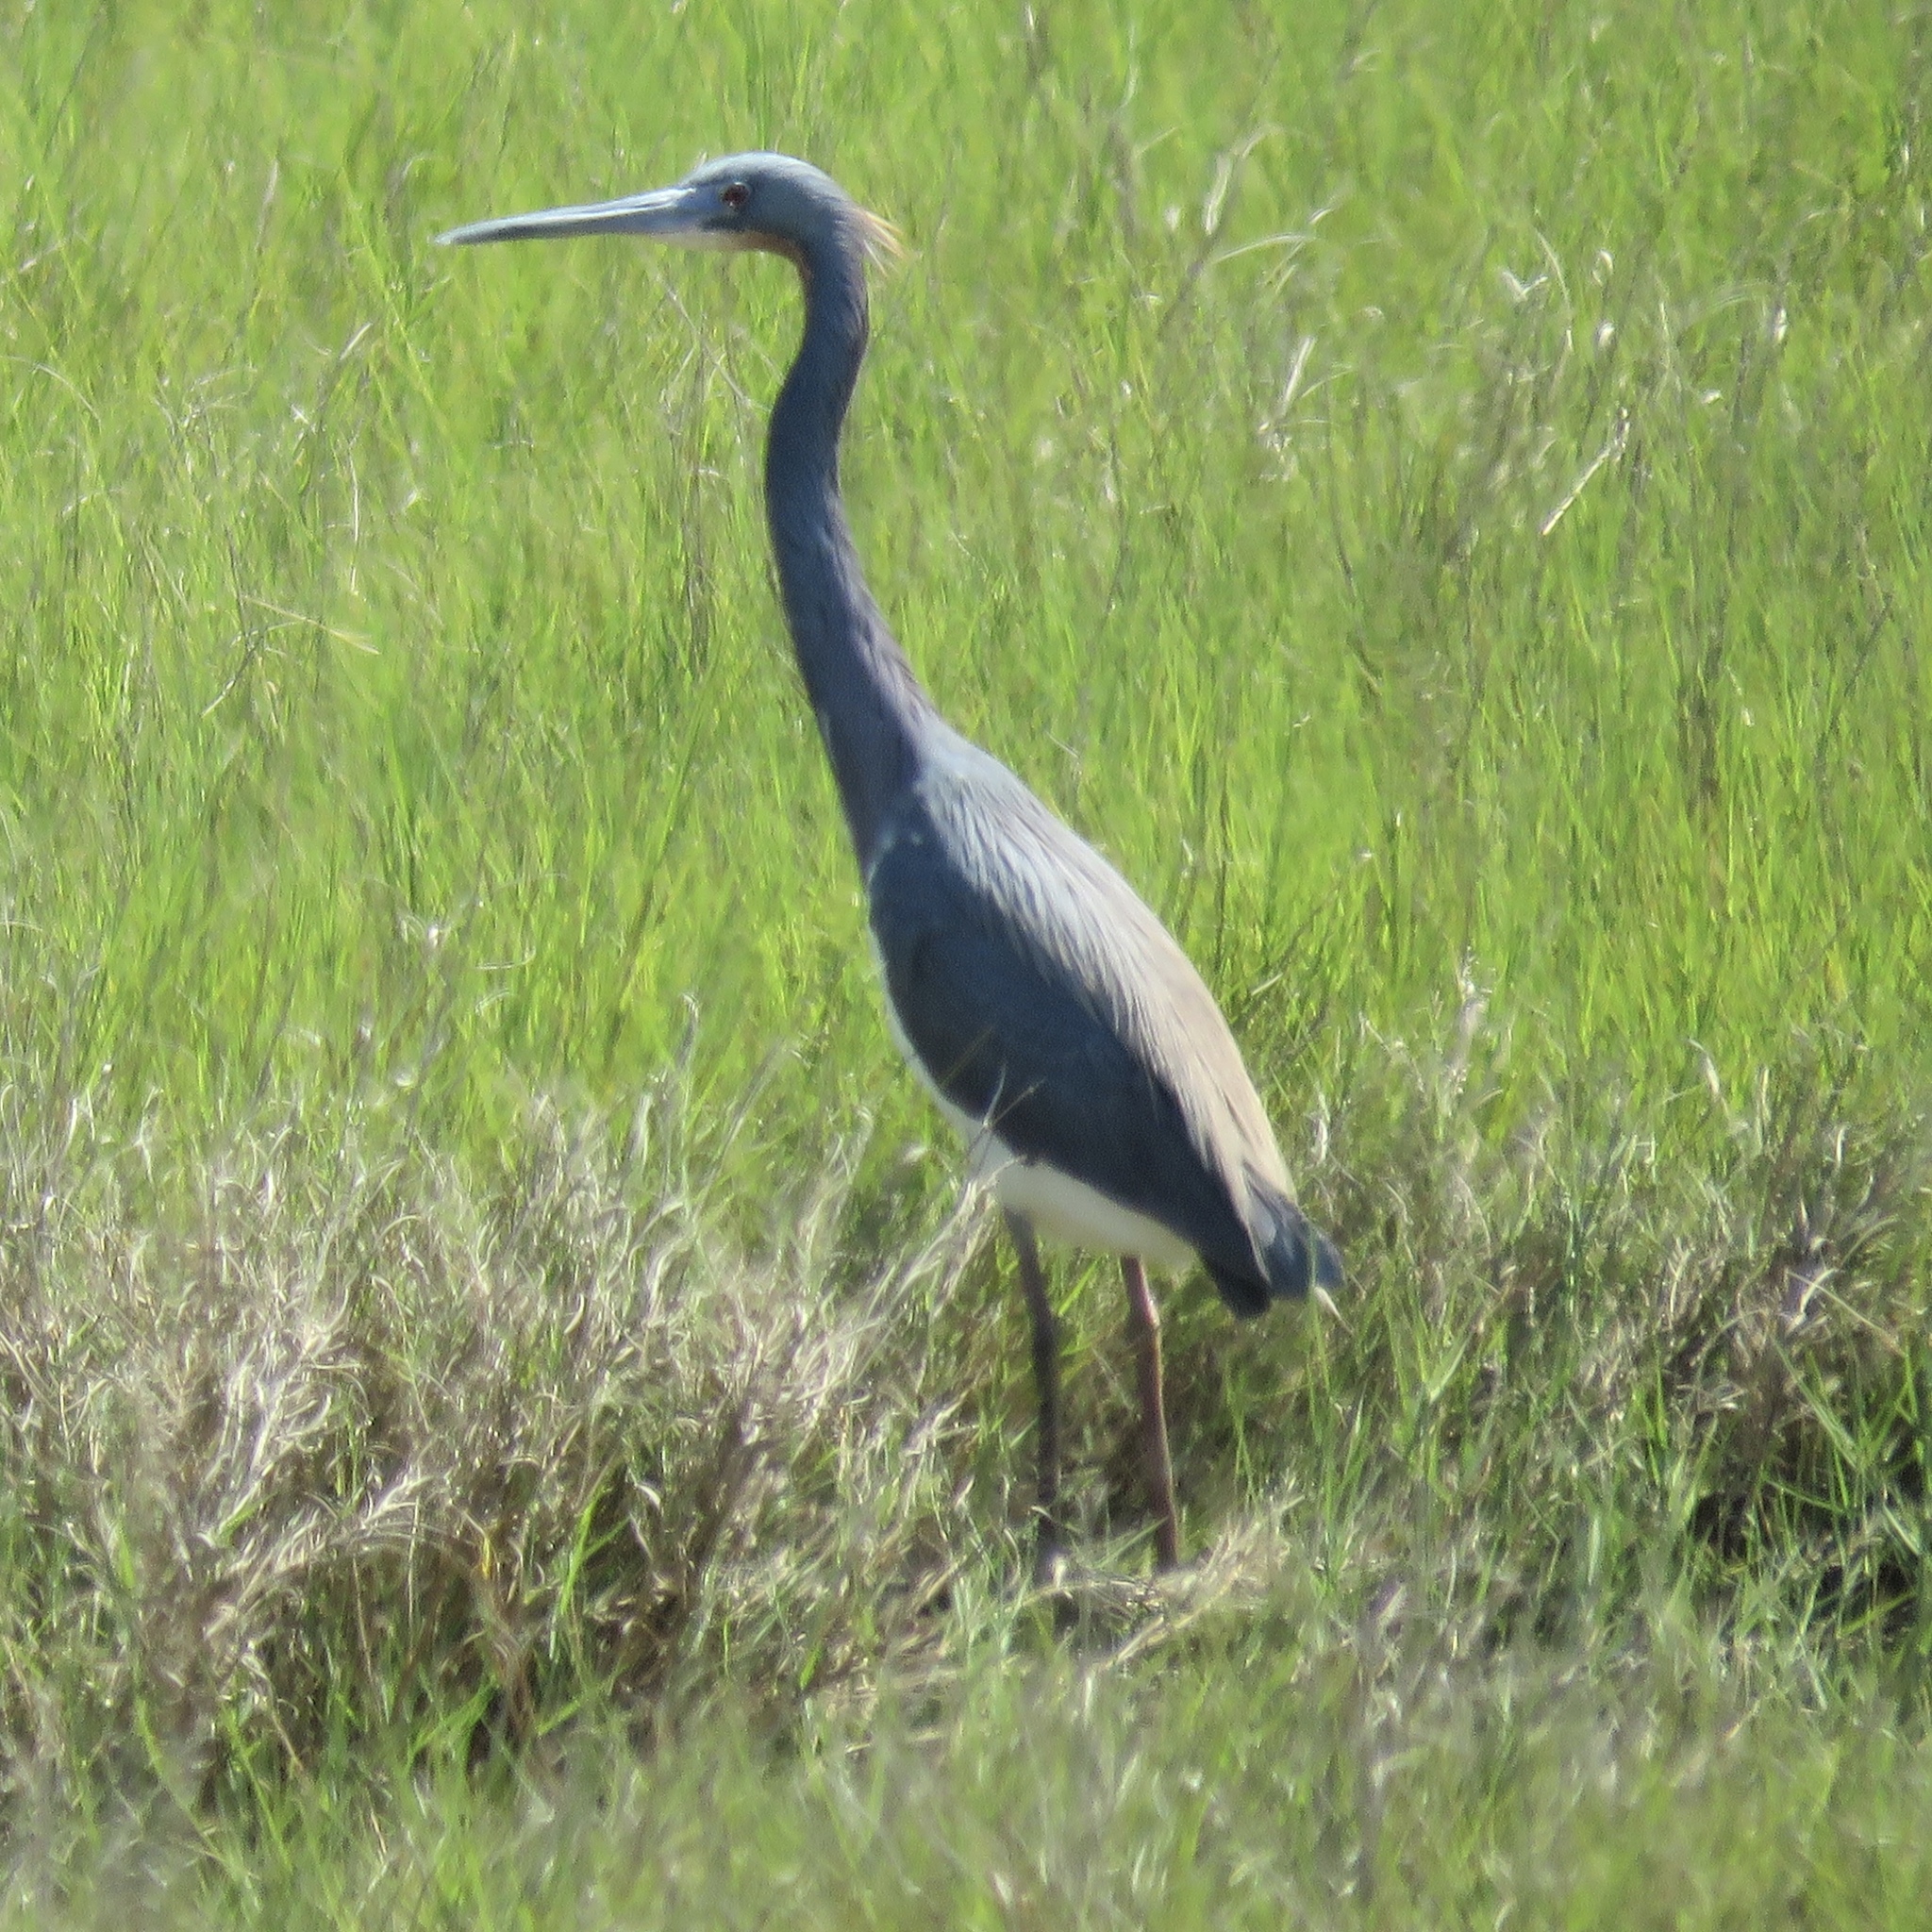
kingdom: Animalia
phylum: Chordata
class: Aves
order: Pelecaniformes
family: Ardeidae
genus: Egretta
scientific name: Egretta tricolor
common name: Tricolored heron
